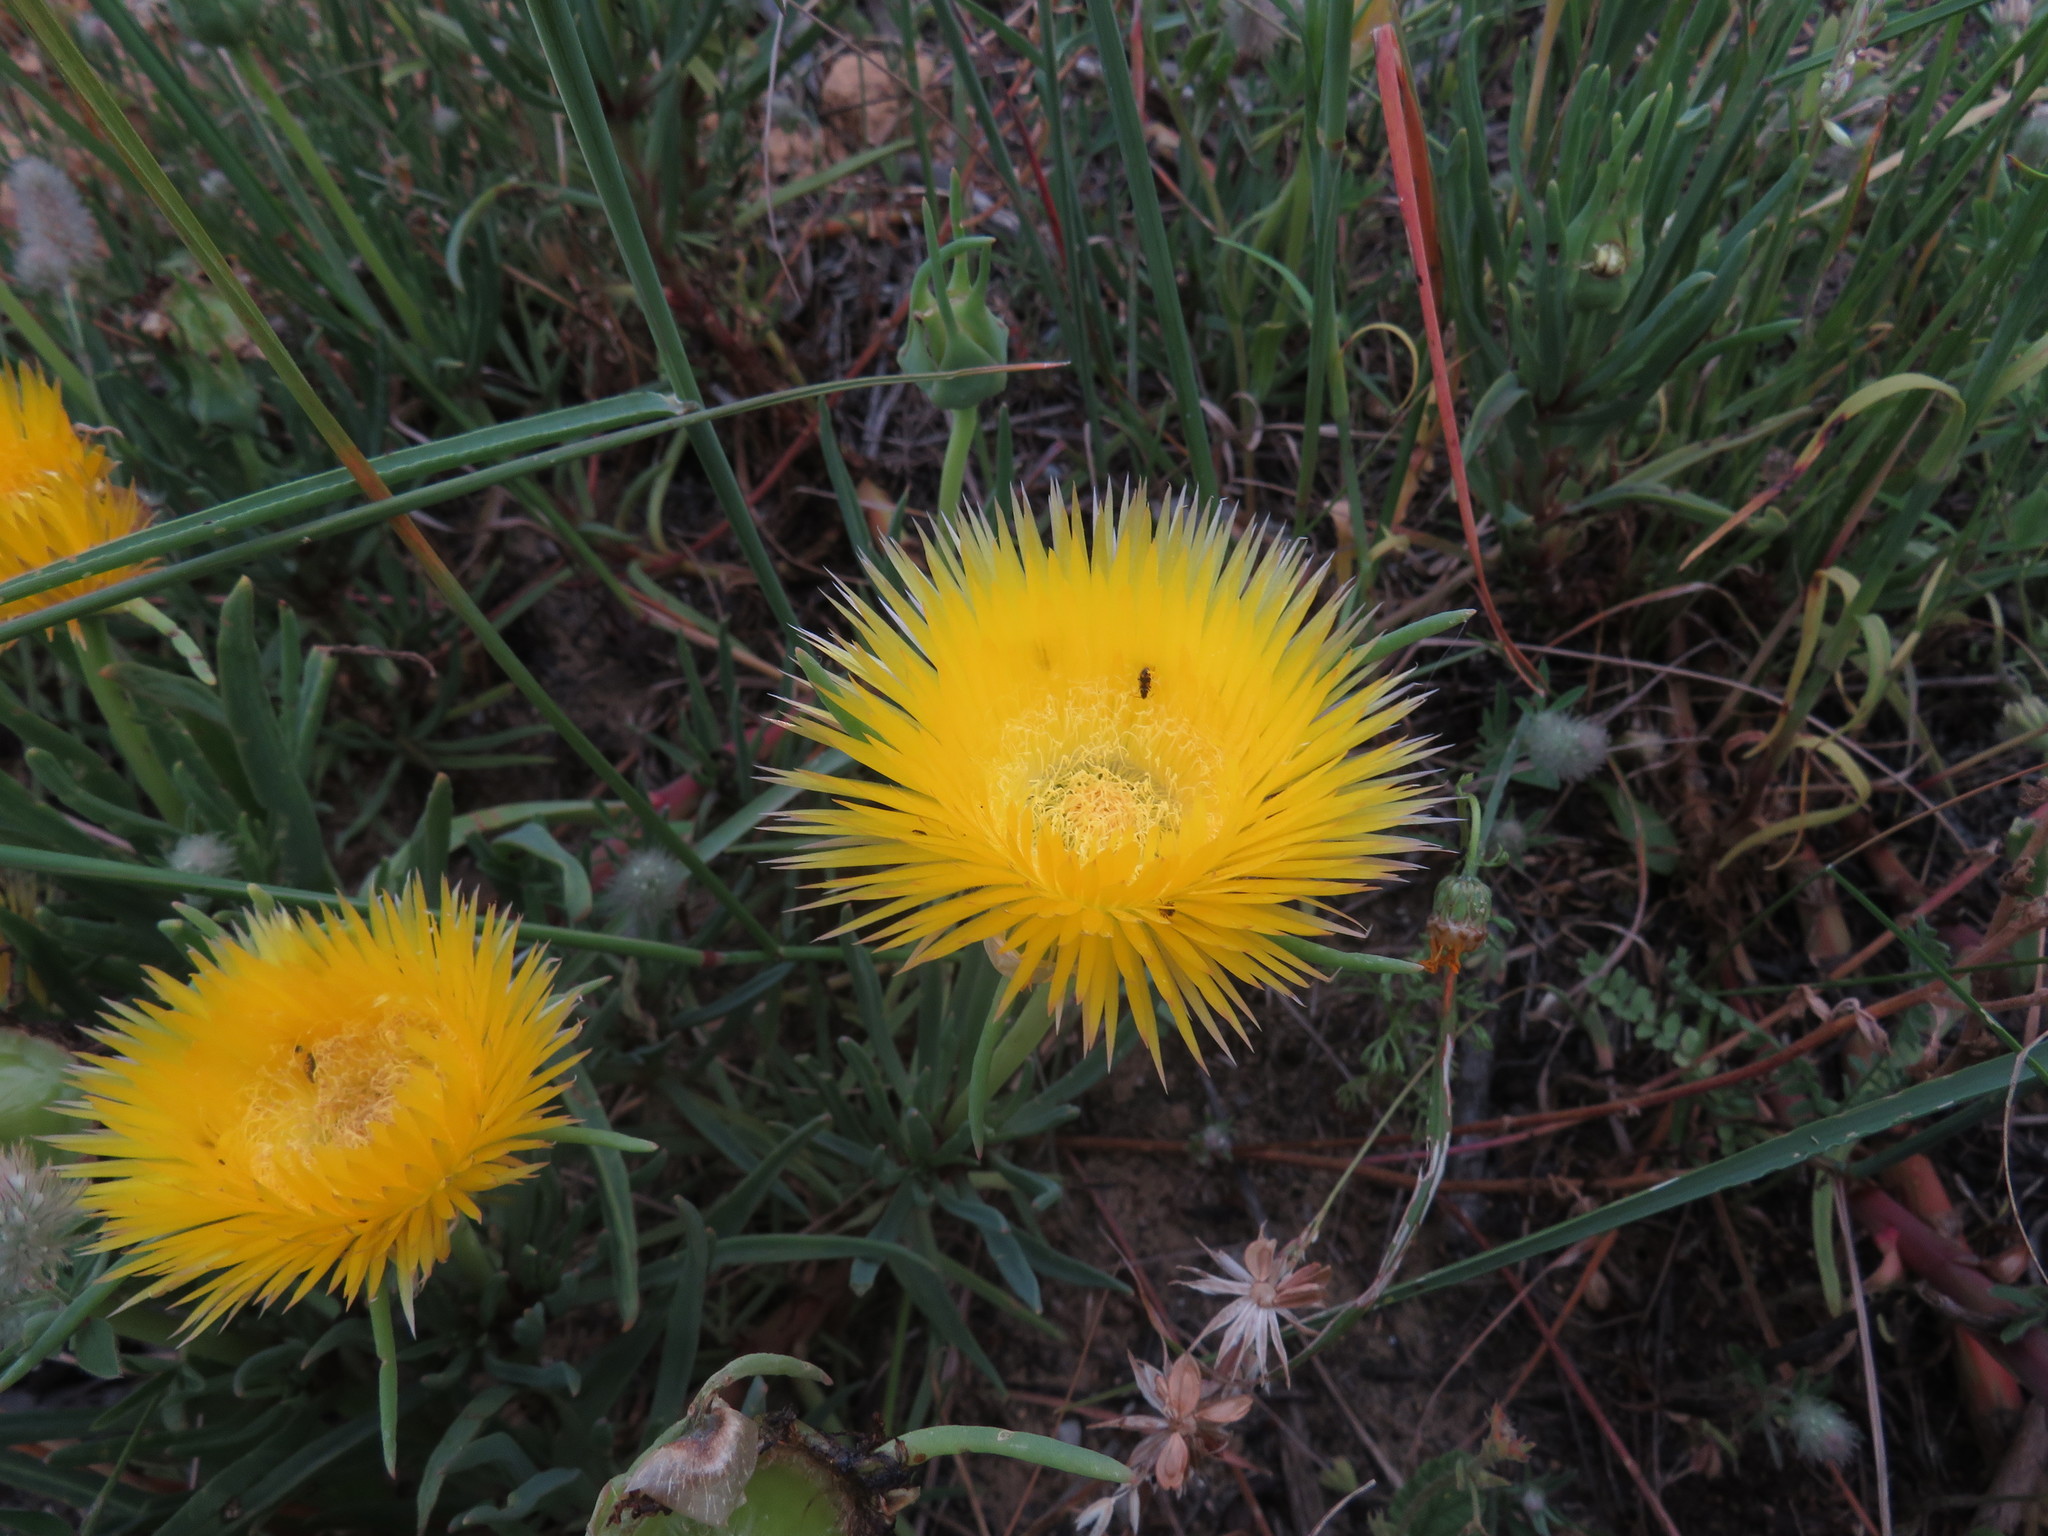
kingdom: Plantae
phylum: Tracheophyta
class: Magnoliopsida
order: Caryophyllales
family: Aizoaceae
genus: Conicosia
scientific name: Conicosia pugioniformis
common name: Narrow-leaved iceplant
